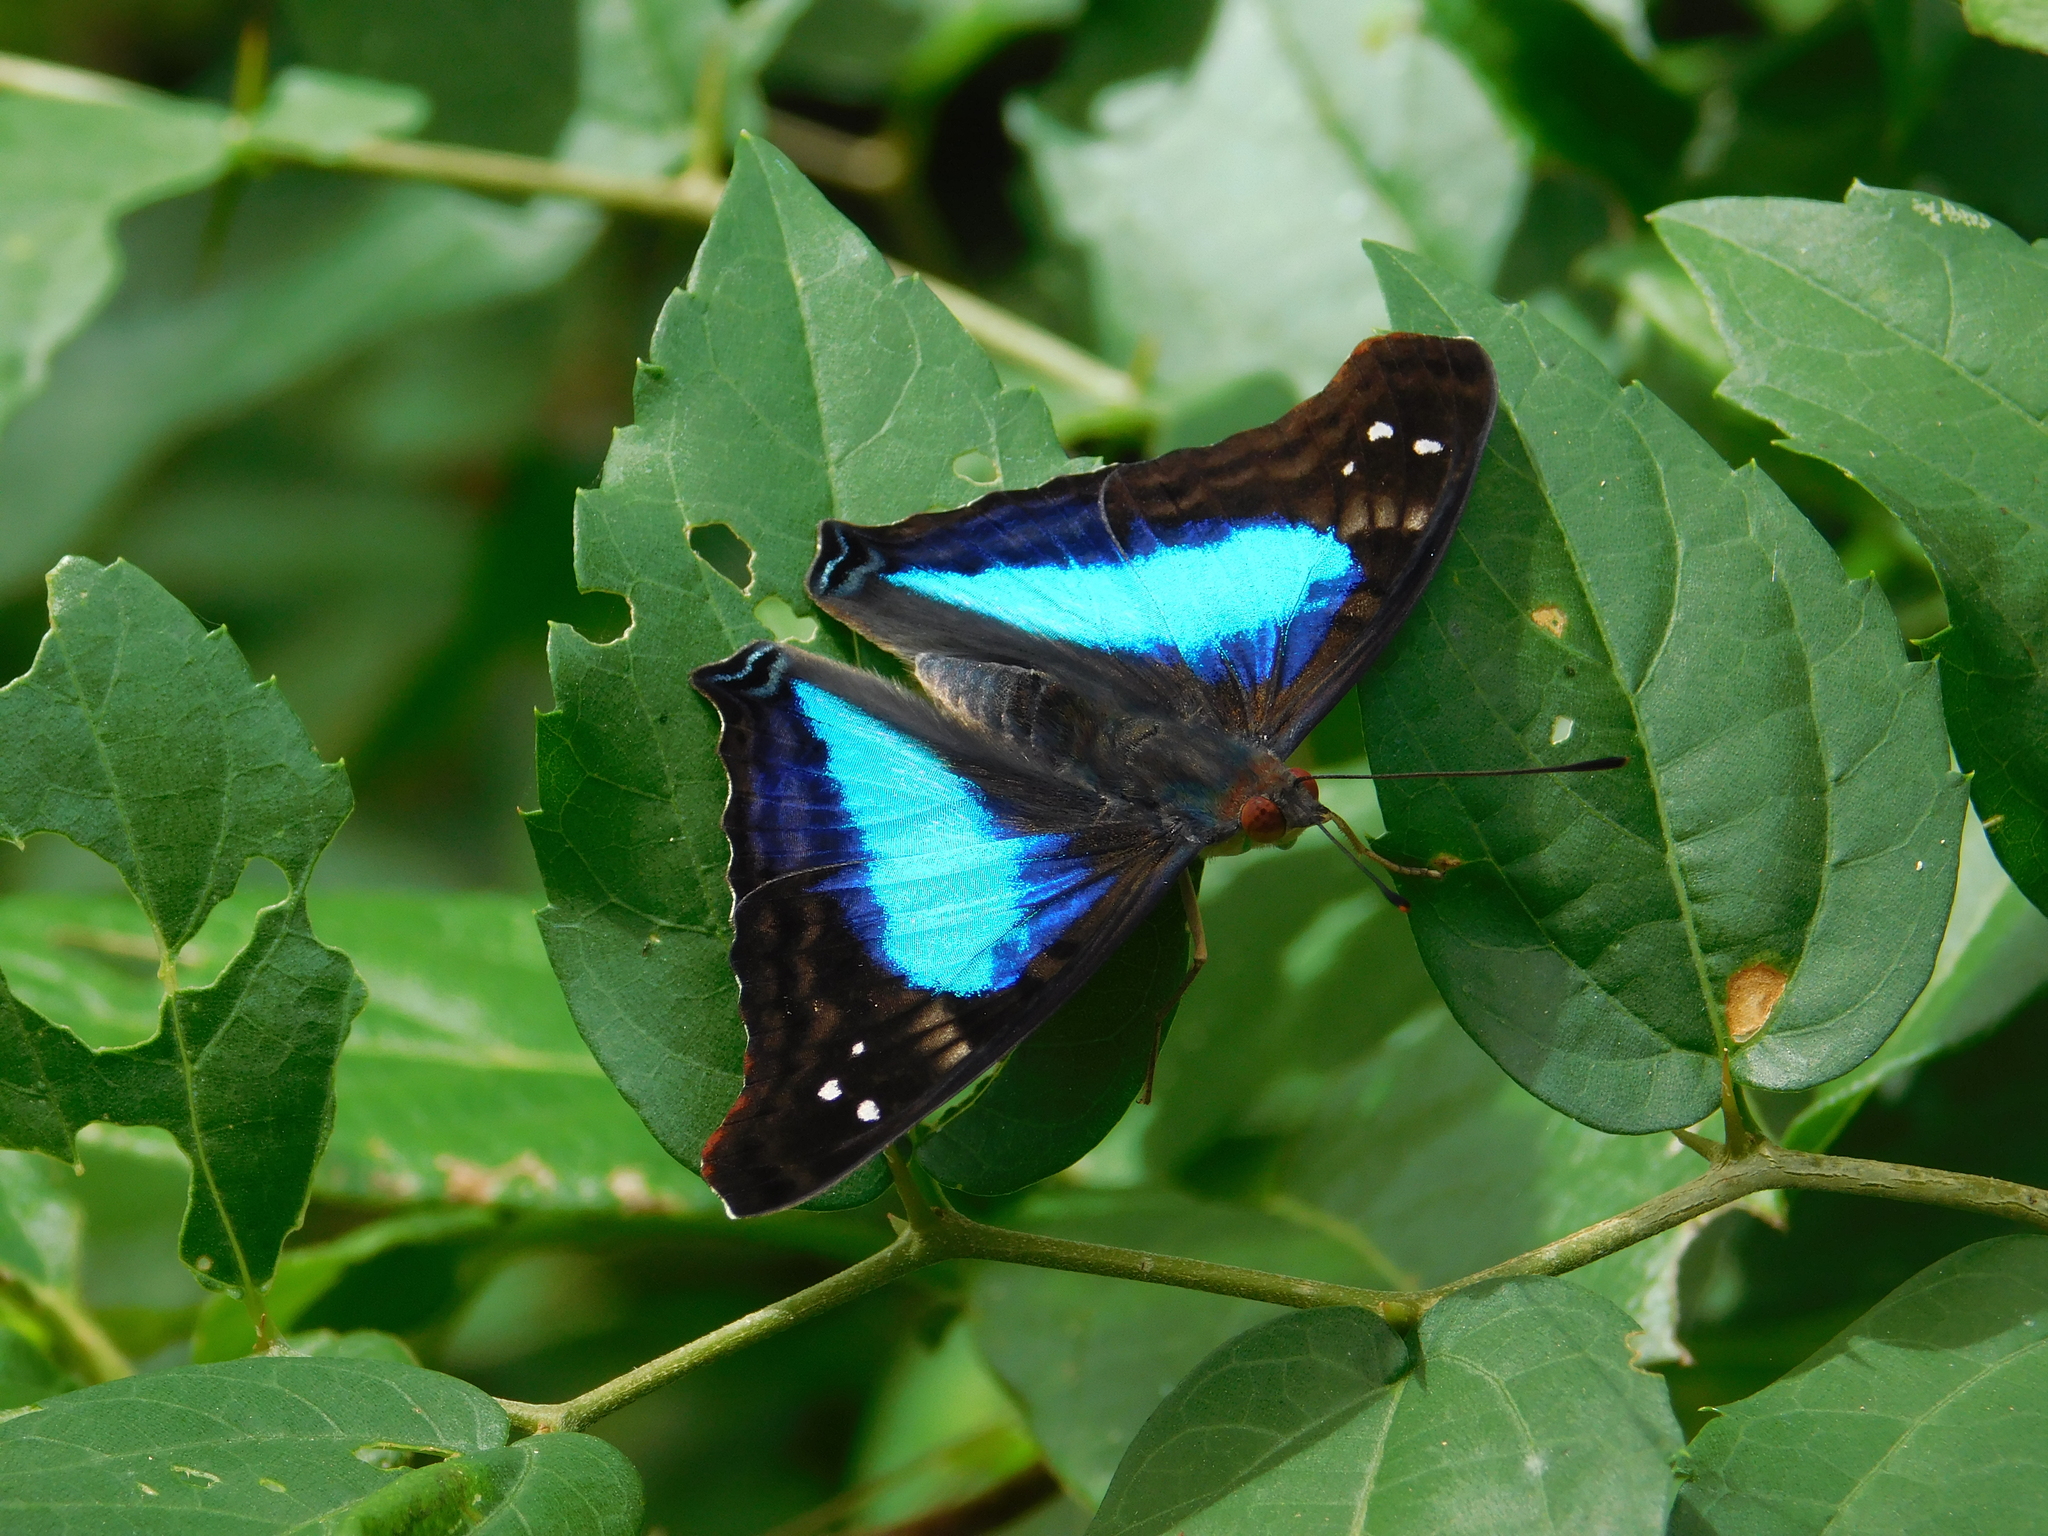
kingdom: Animalia
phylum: Arthropoda
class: Insecta
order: Lepidoptera
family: Nymphalidae
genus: Doxocopa
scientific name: Doxocopa laurentia
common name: Turquoise emperor
